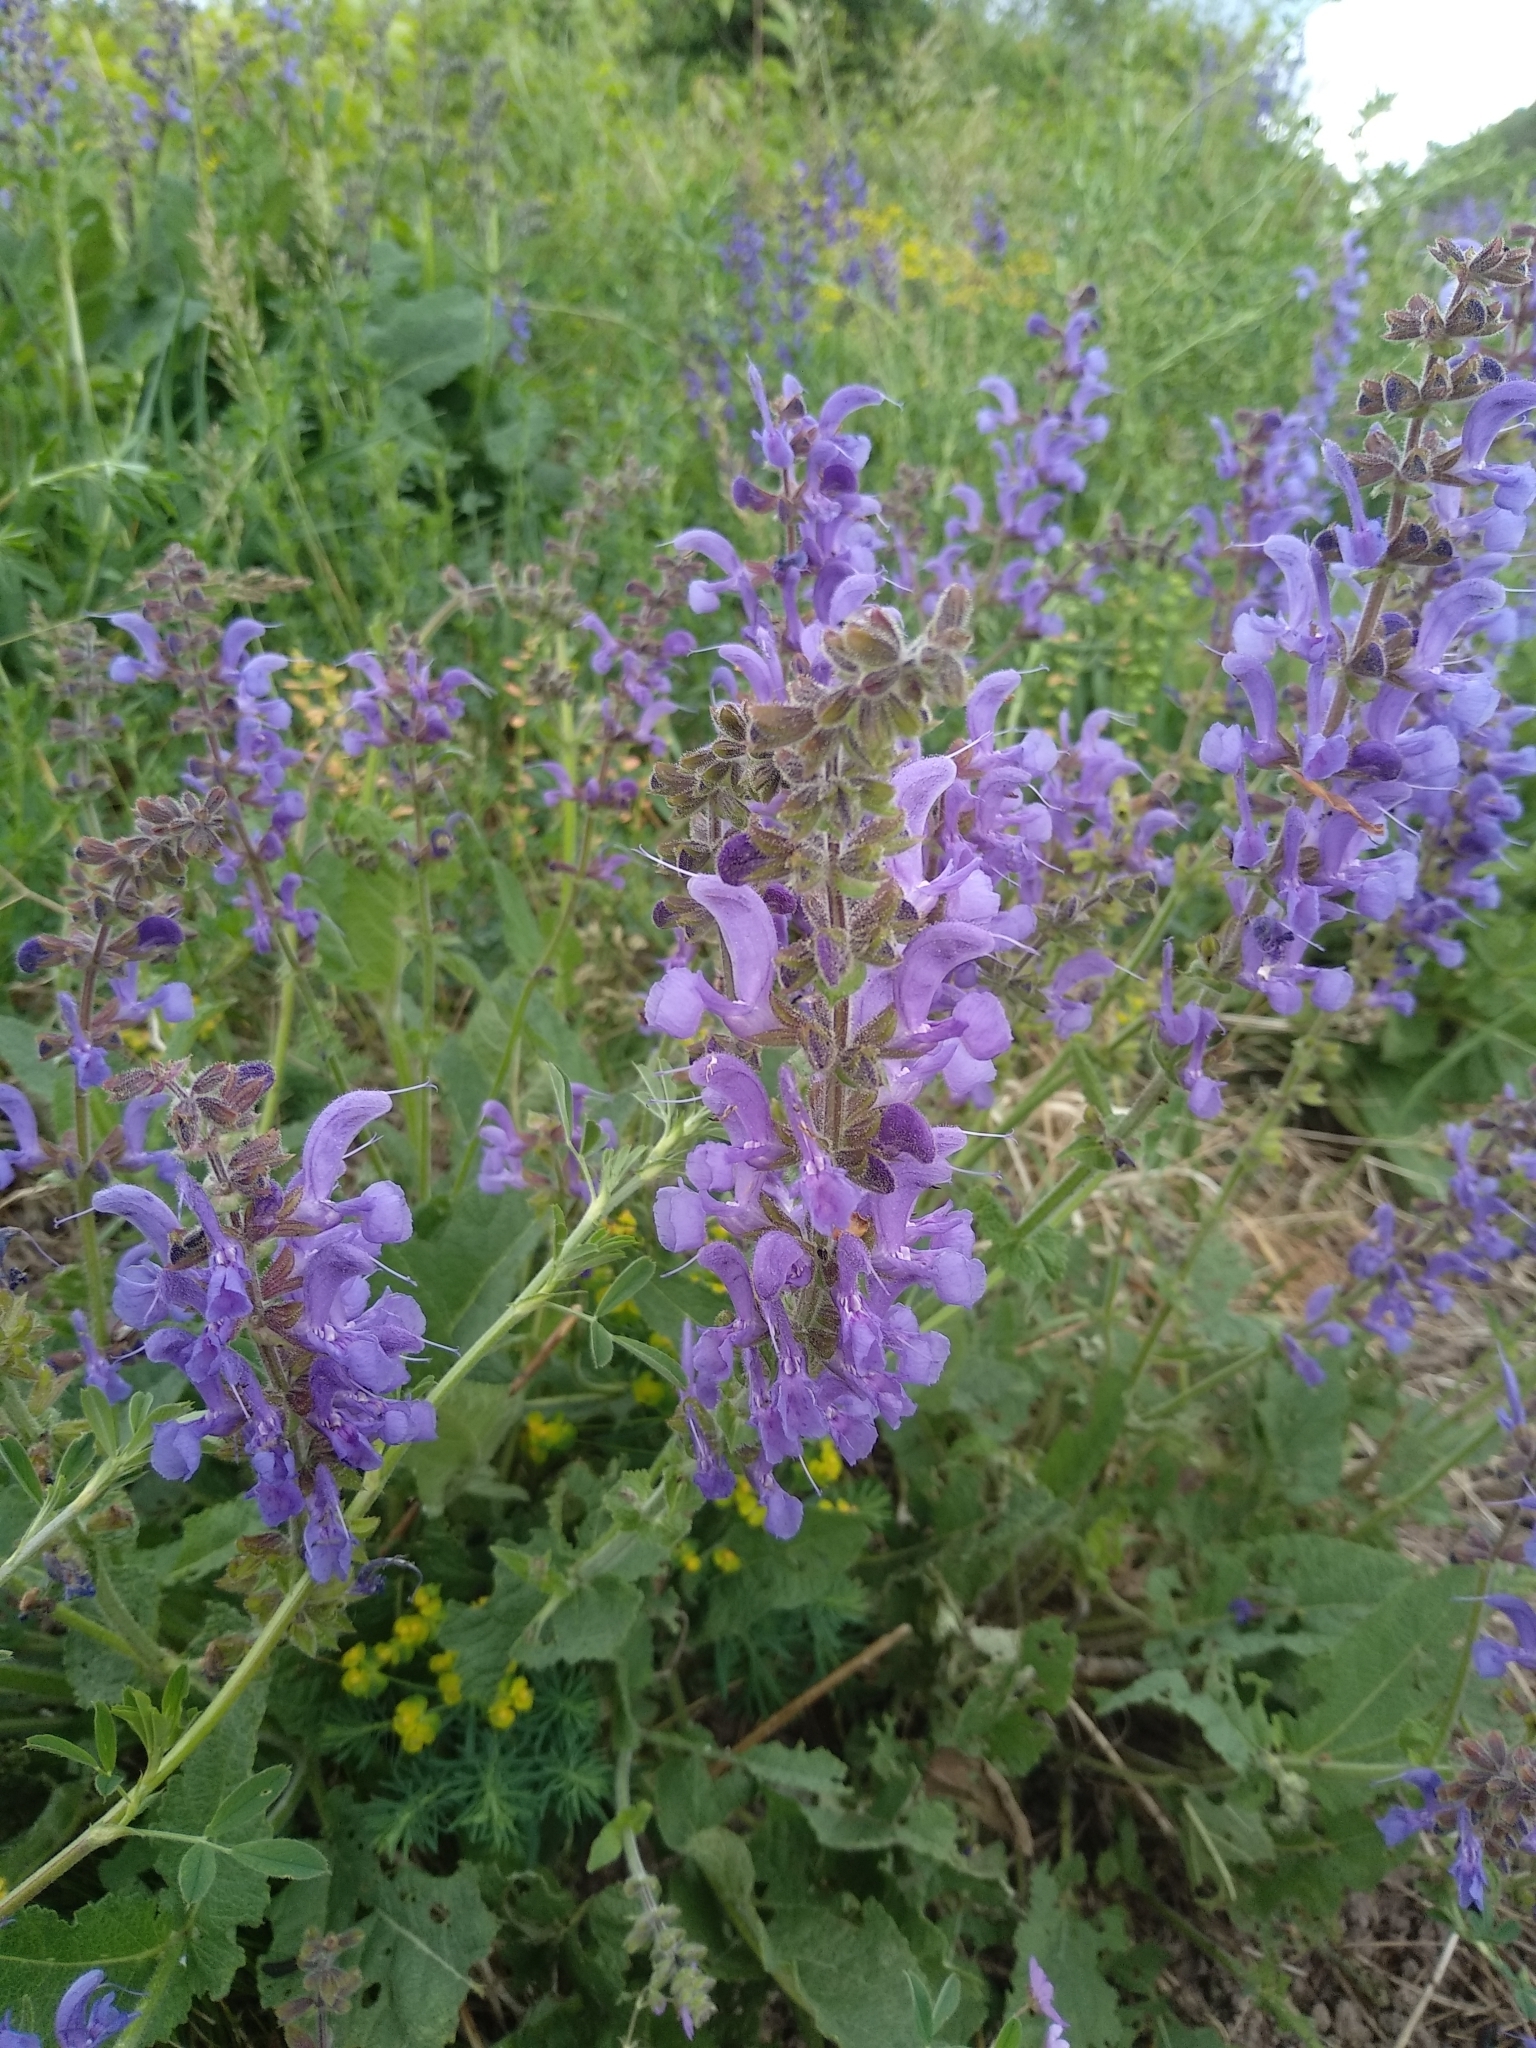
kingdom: Plantae
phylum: Tracheophyta
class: Magnoliopsida
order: Lamiales
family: Lamiaceae
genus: Salvia
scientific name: Salvia pratensis
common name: Meadow sage
